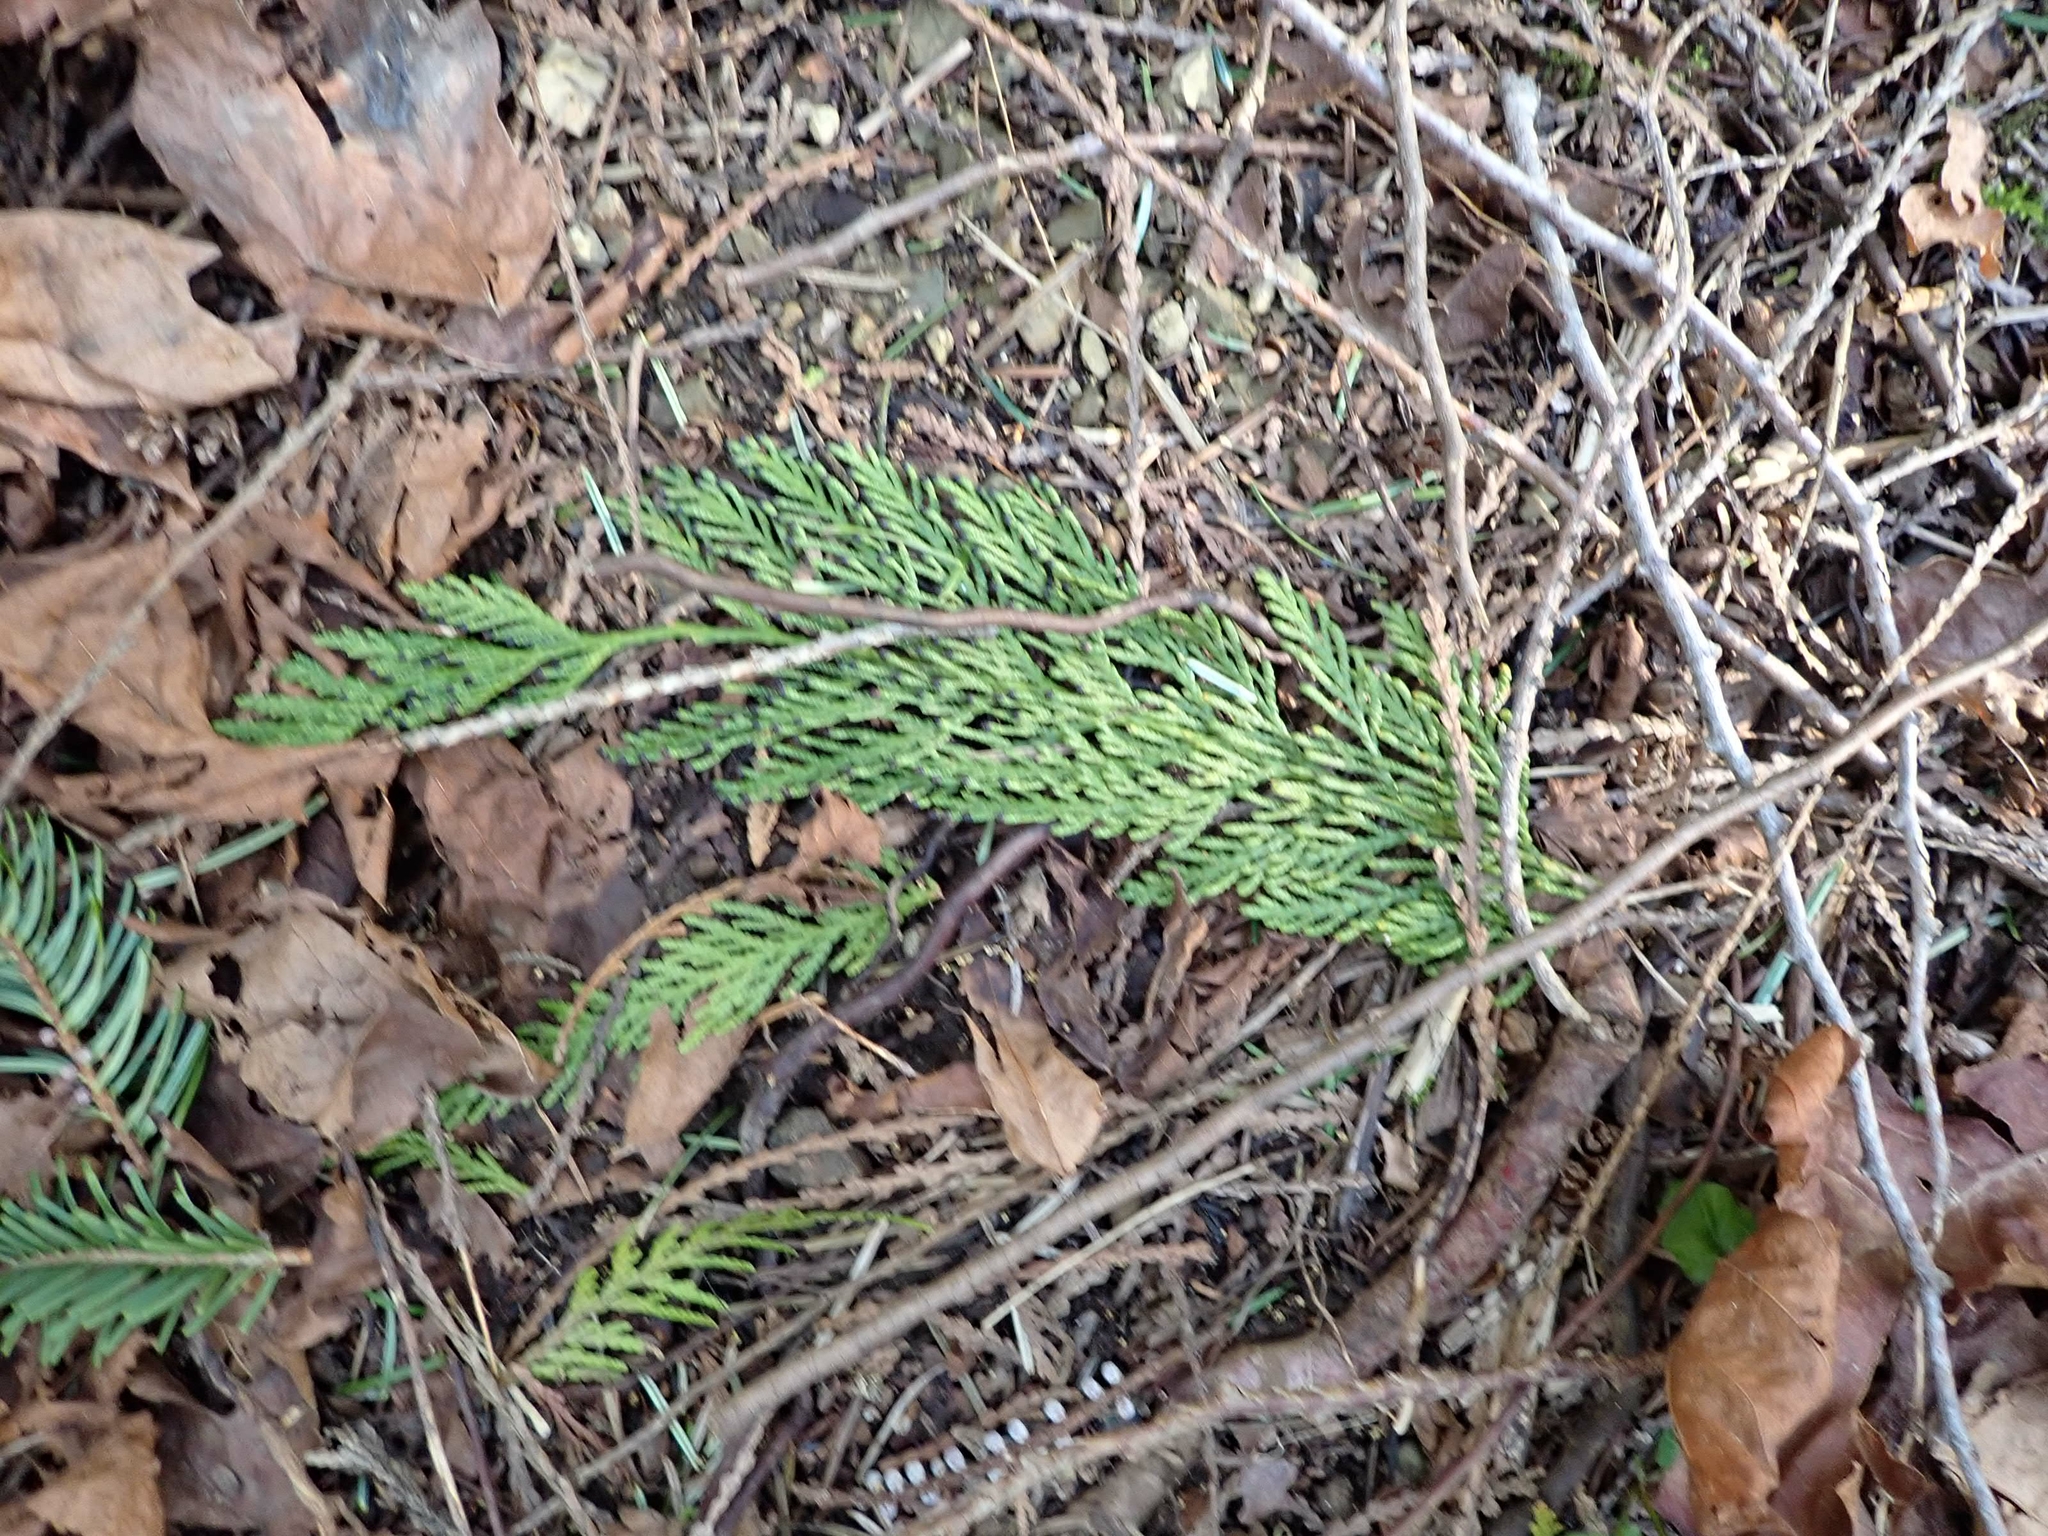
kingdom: Plantae
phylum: Tracheophyta
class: Pinopsida
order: Pinales
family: Cupressaceae
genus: Thuja
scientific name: Thuja plicata
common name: Western red-cedar
